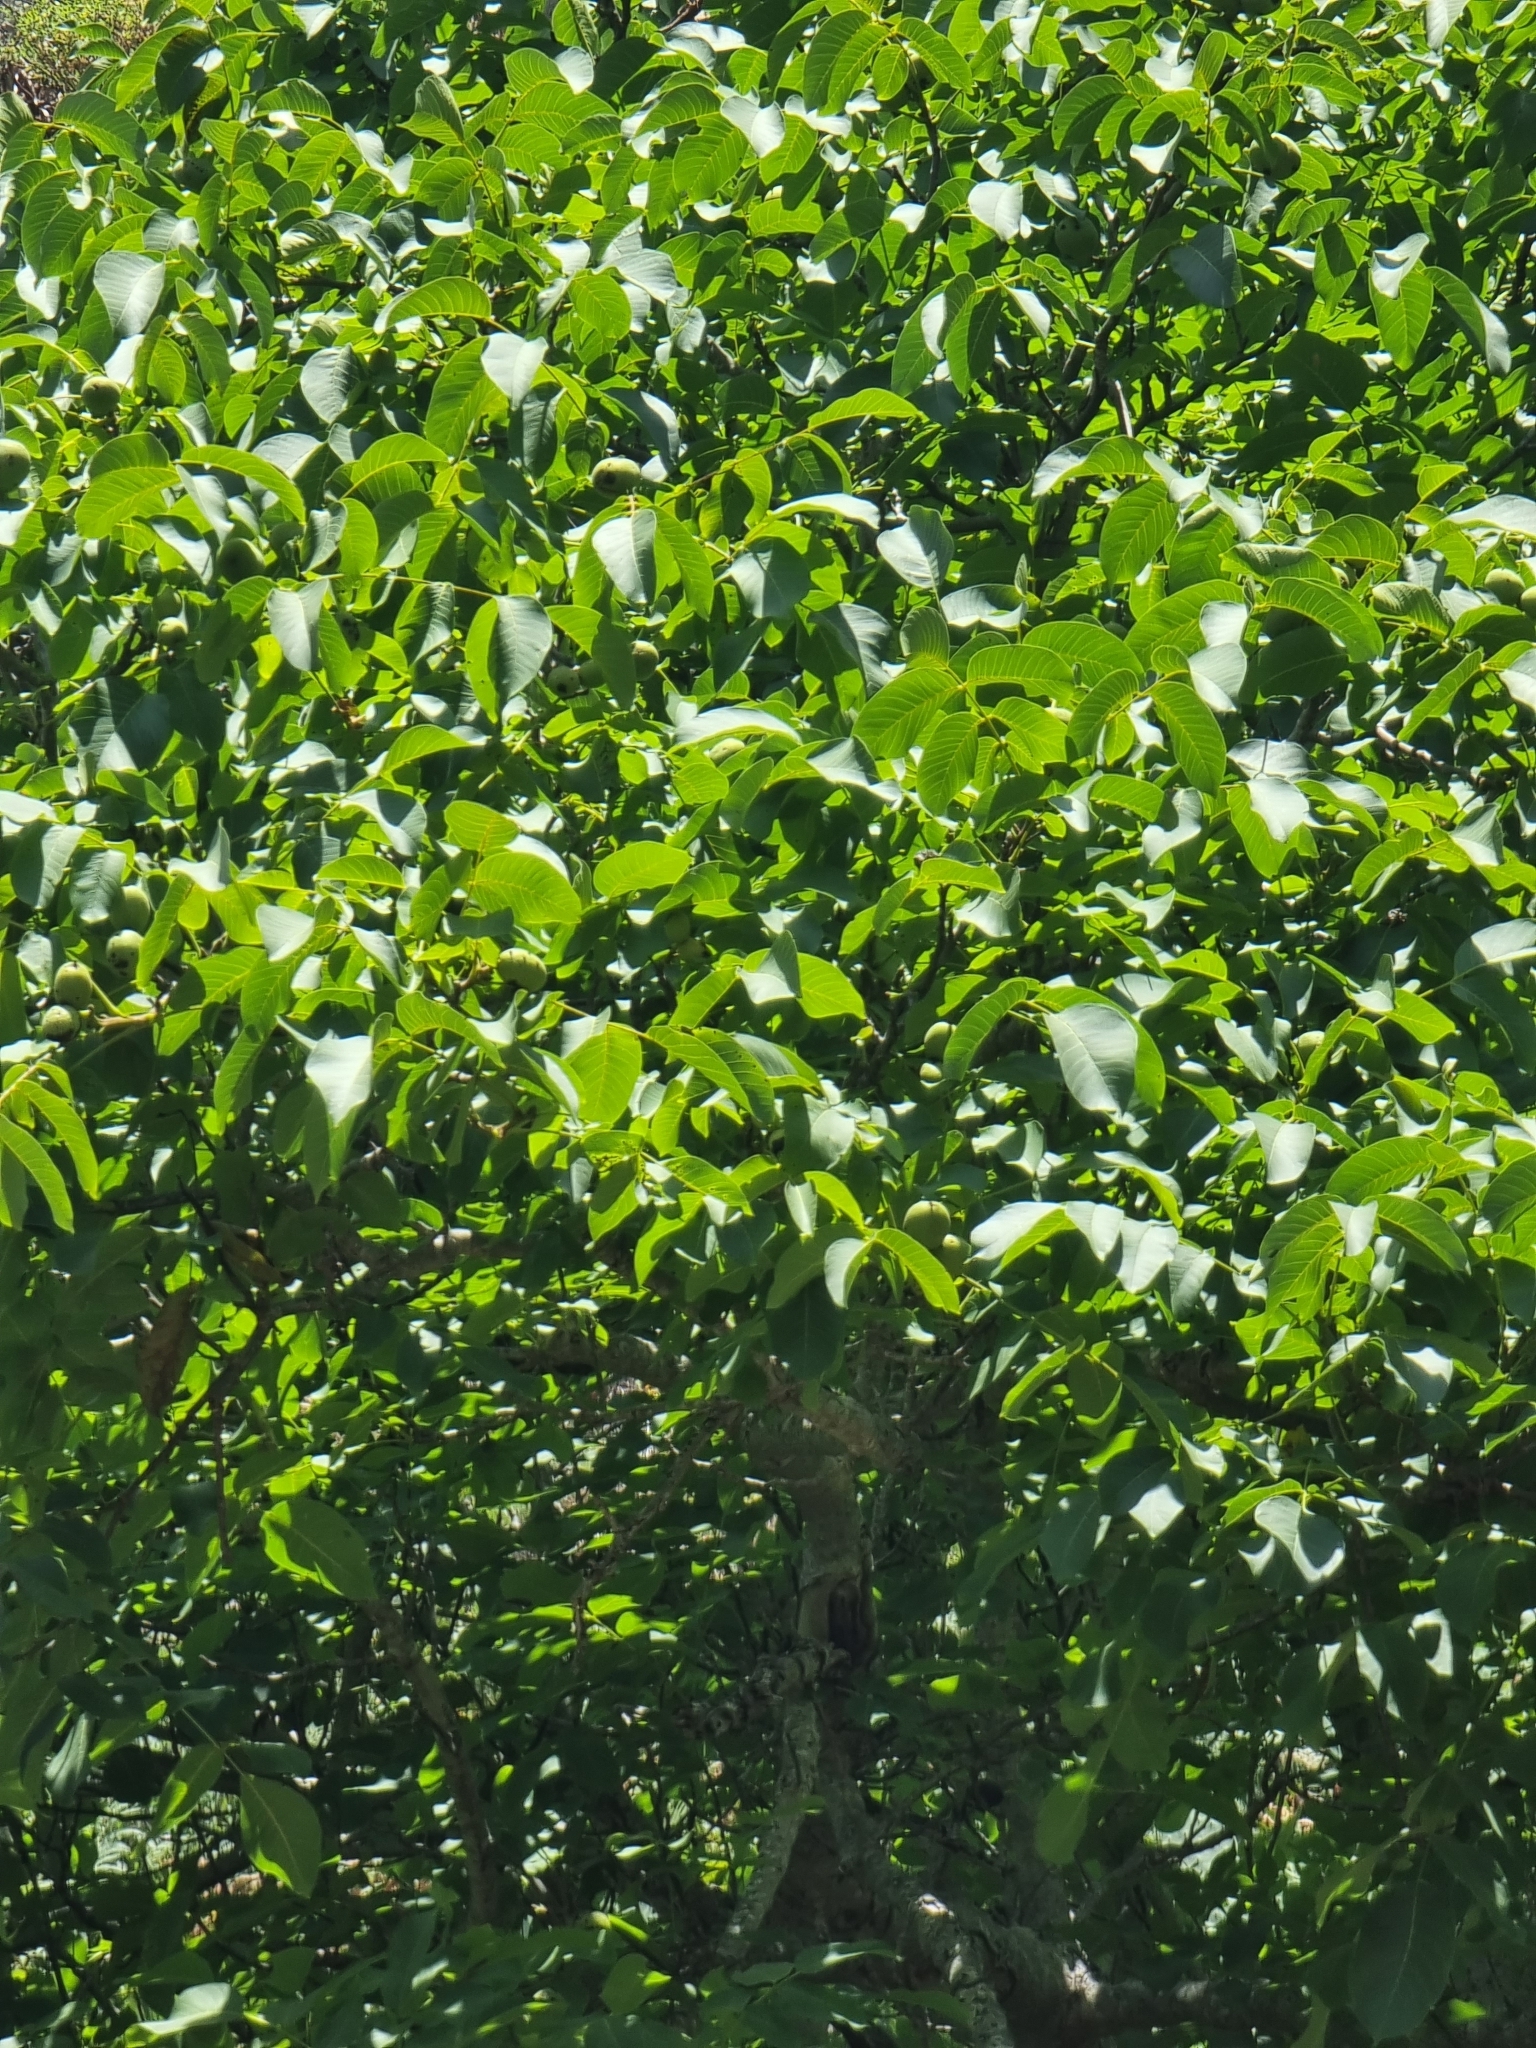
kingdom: Plantae
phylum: Tracheophyta
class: Magnoliopsida
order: Fagales
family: Juglandaceae
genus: Juglans
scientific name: Juglans regia
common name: Walnut
